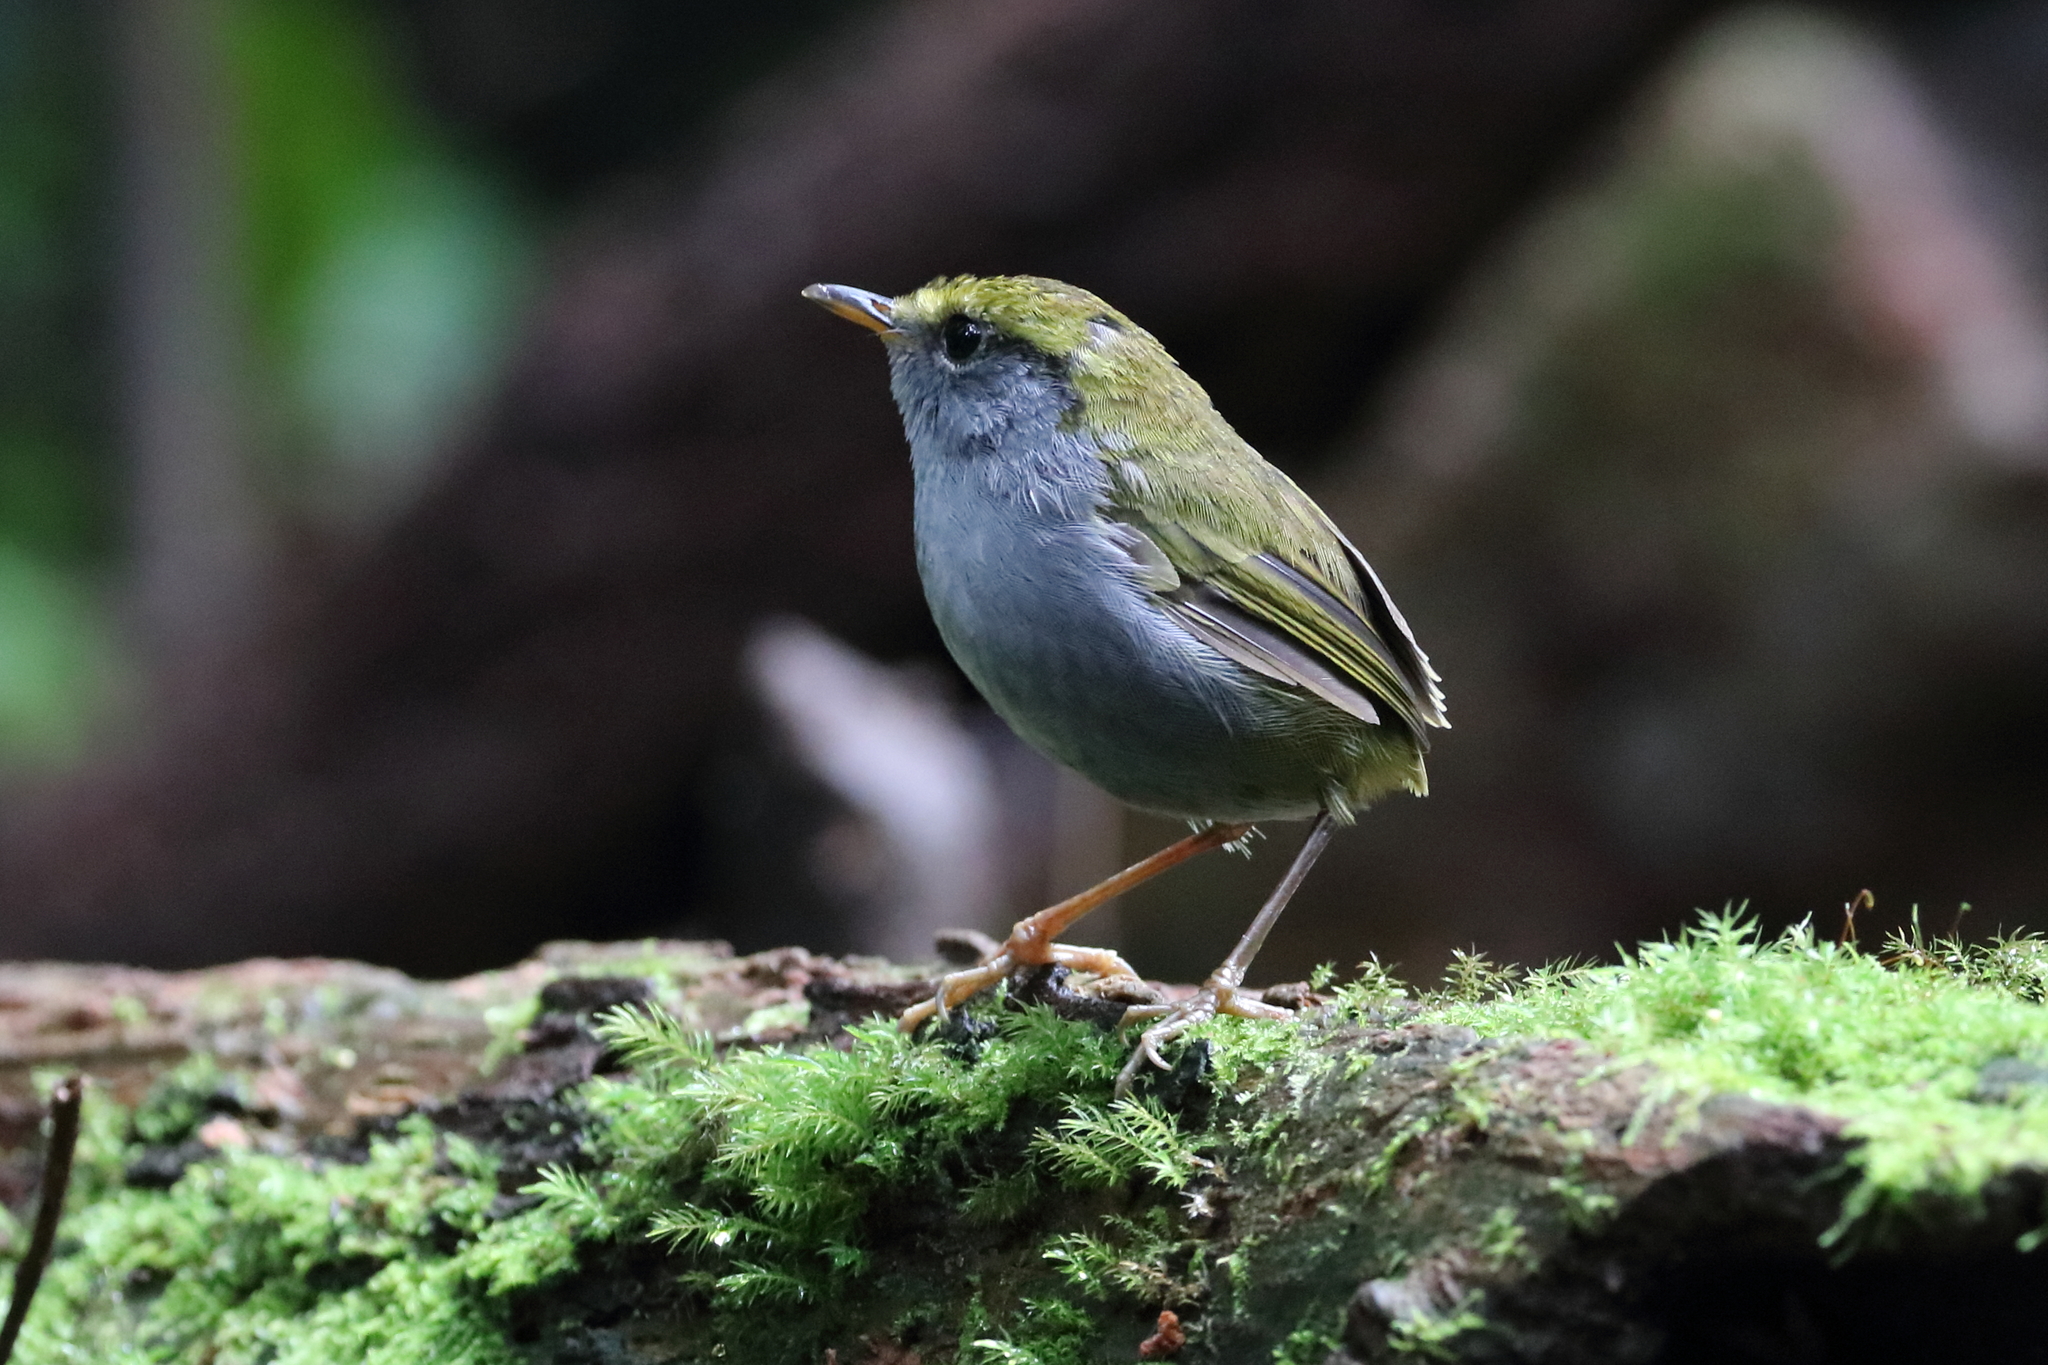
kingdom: Animalia
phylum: Chordata
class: Aves
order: Passeriformes
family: Cettiidae
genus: Tesia
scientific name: Tesia cyaniventer
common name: Grey-bellied tesia
